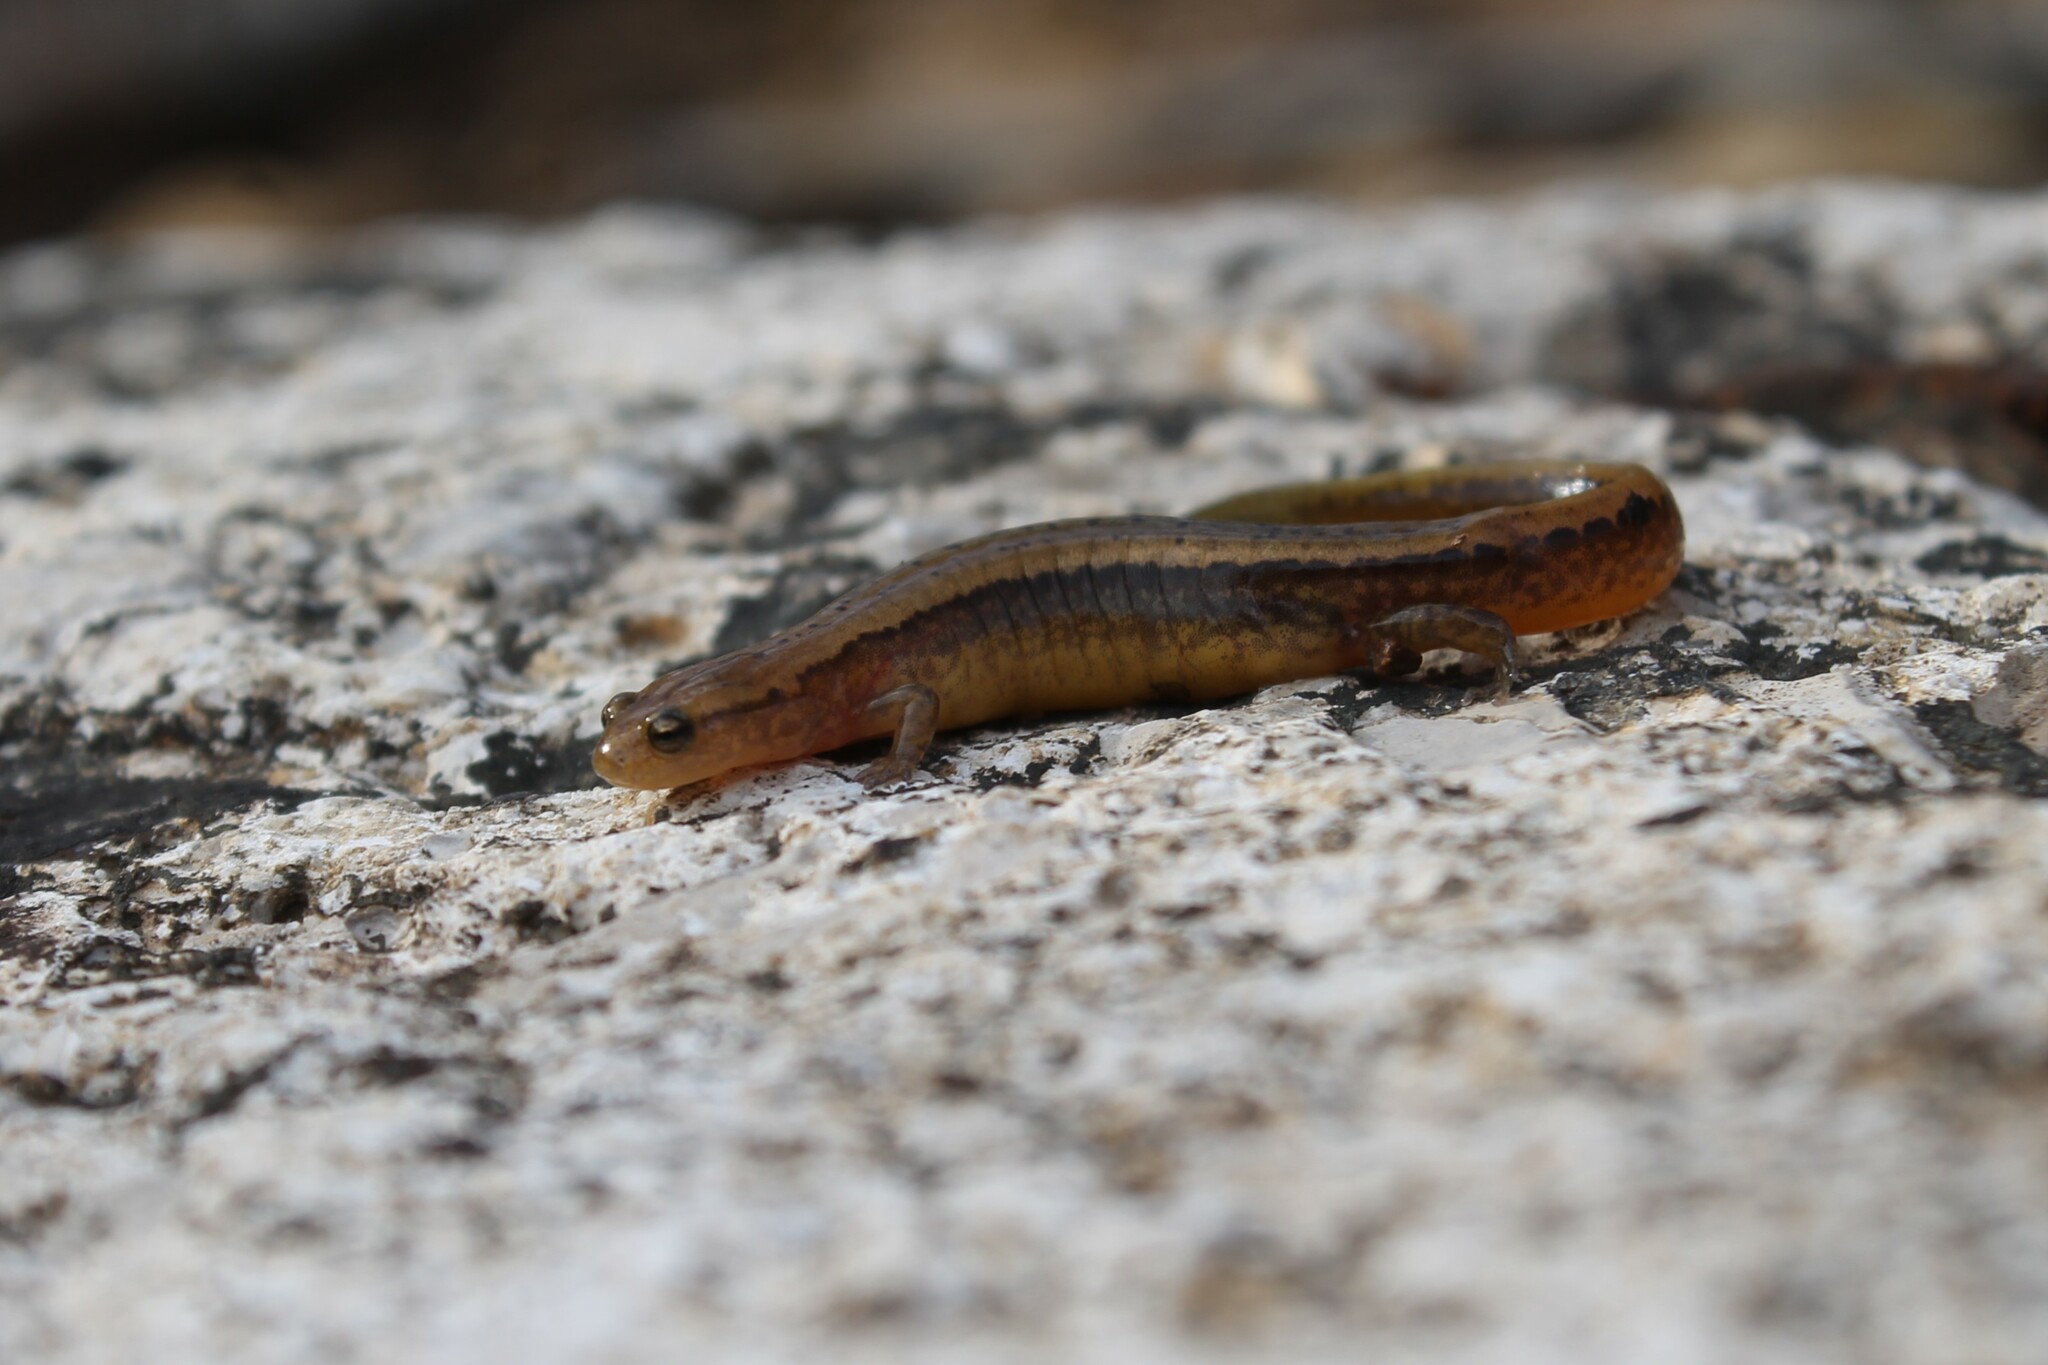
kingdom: Animalia
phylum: Chordata
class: Amphibia
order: Caudata
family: Plethodontidae
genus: Eurycea
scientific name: Eurycea cirrigera
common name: Southern two-lined salamander
